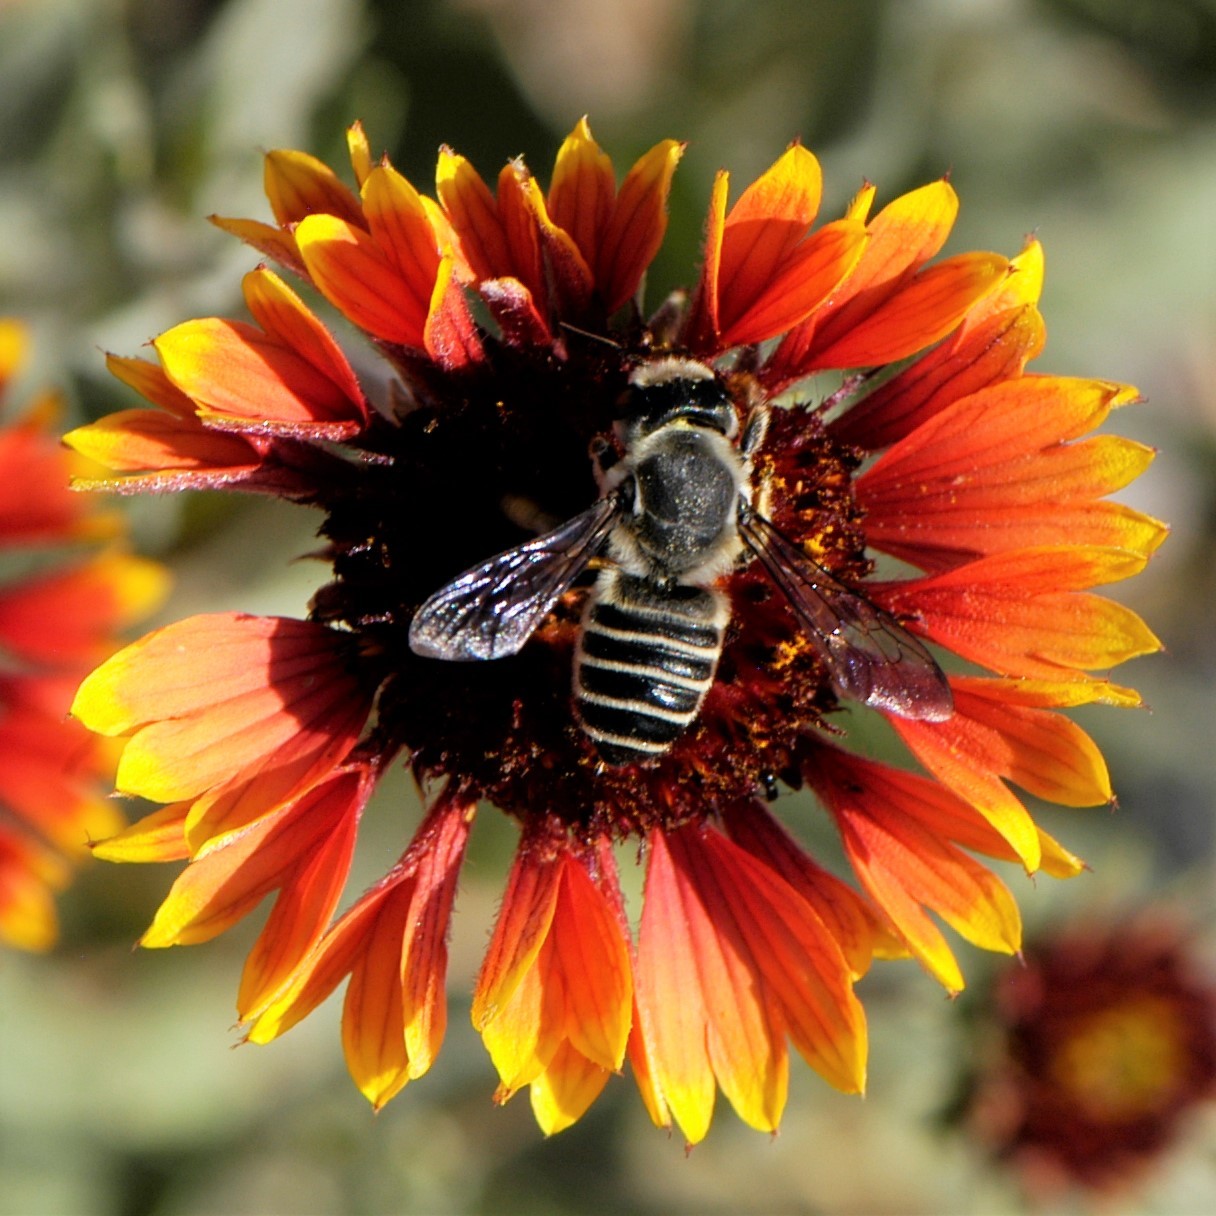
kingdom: Animalia
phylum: Arthropoda
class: Insecta
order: Hymenoptera
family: Megachilidae
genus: Megachile
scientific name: Megachile policaris
